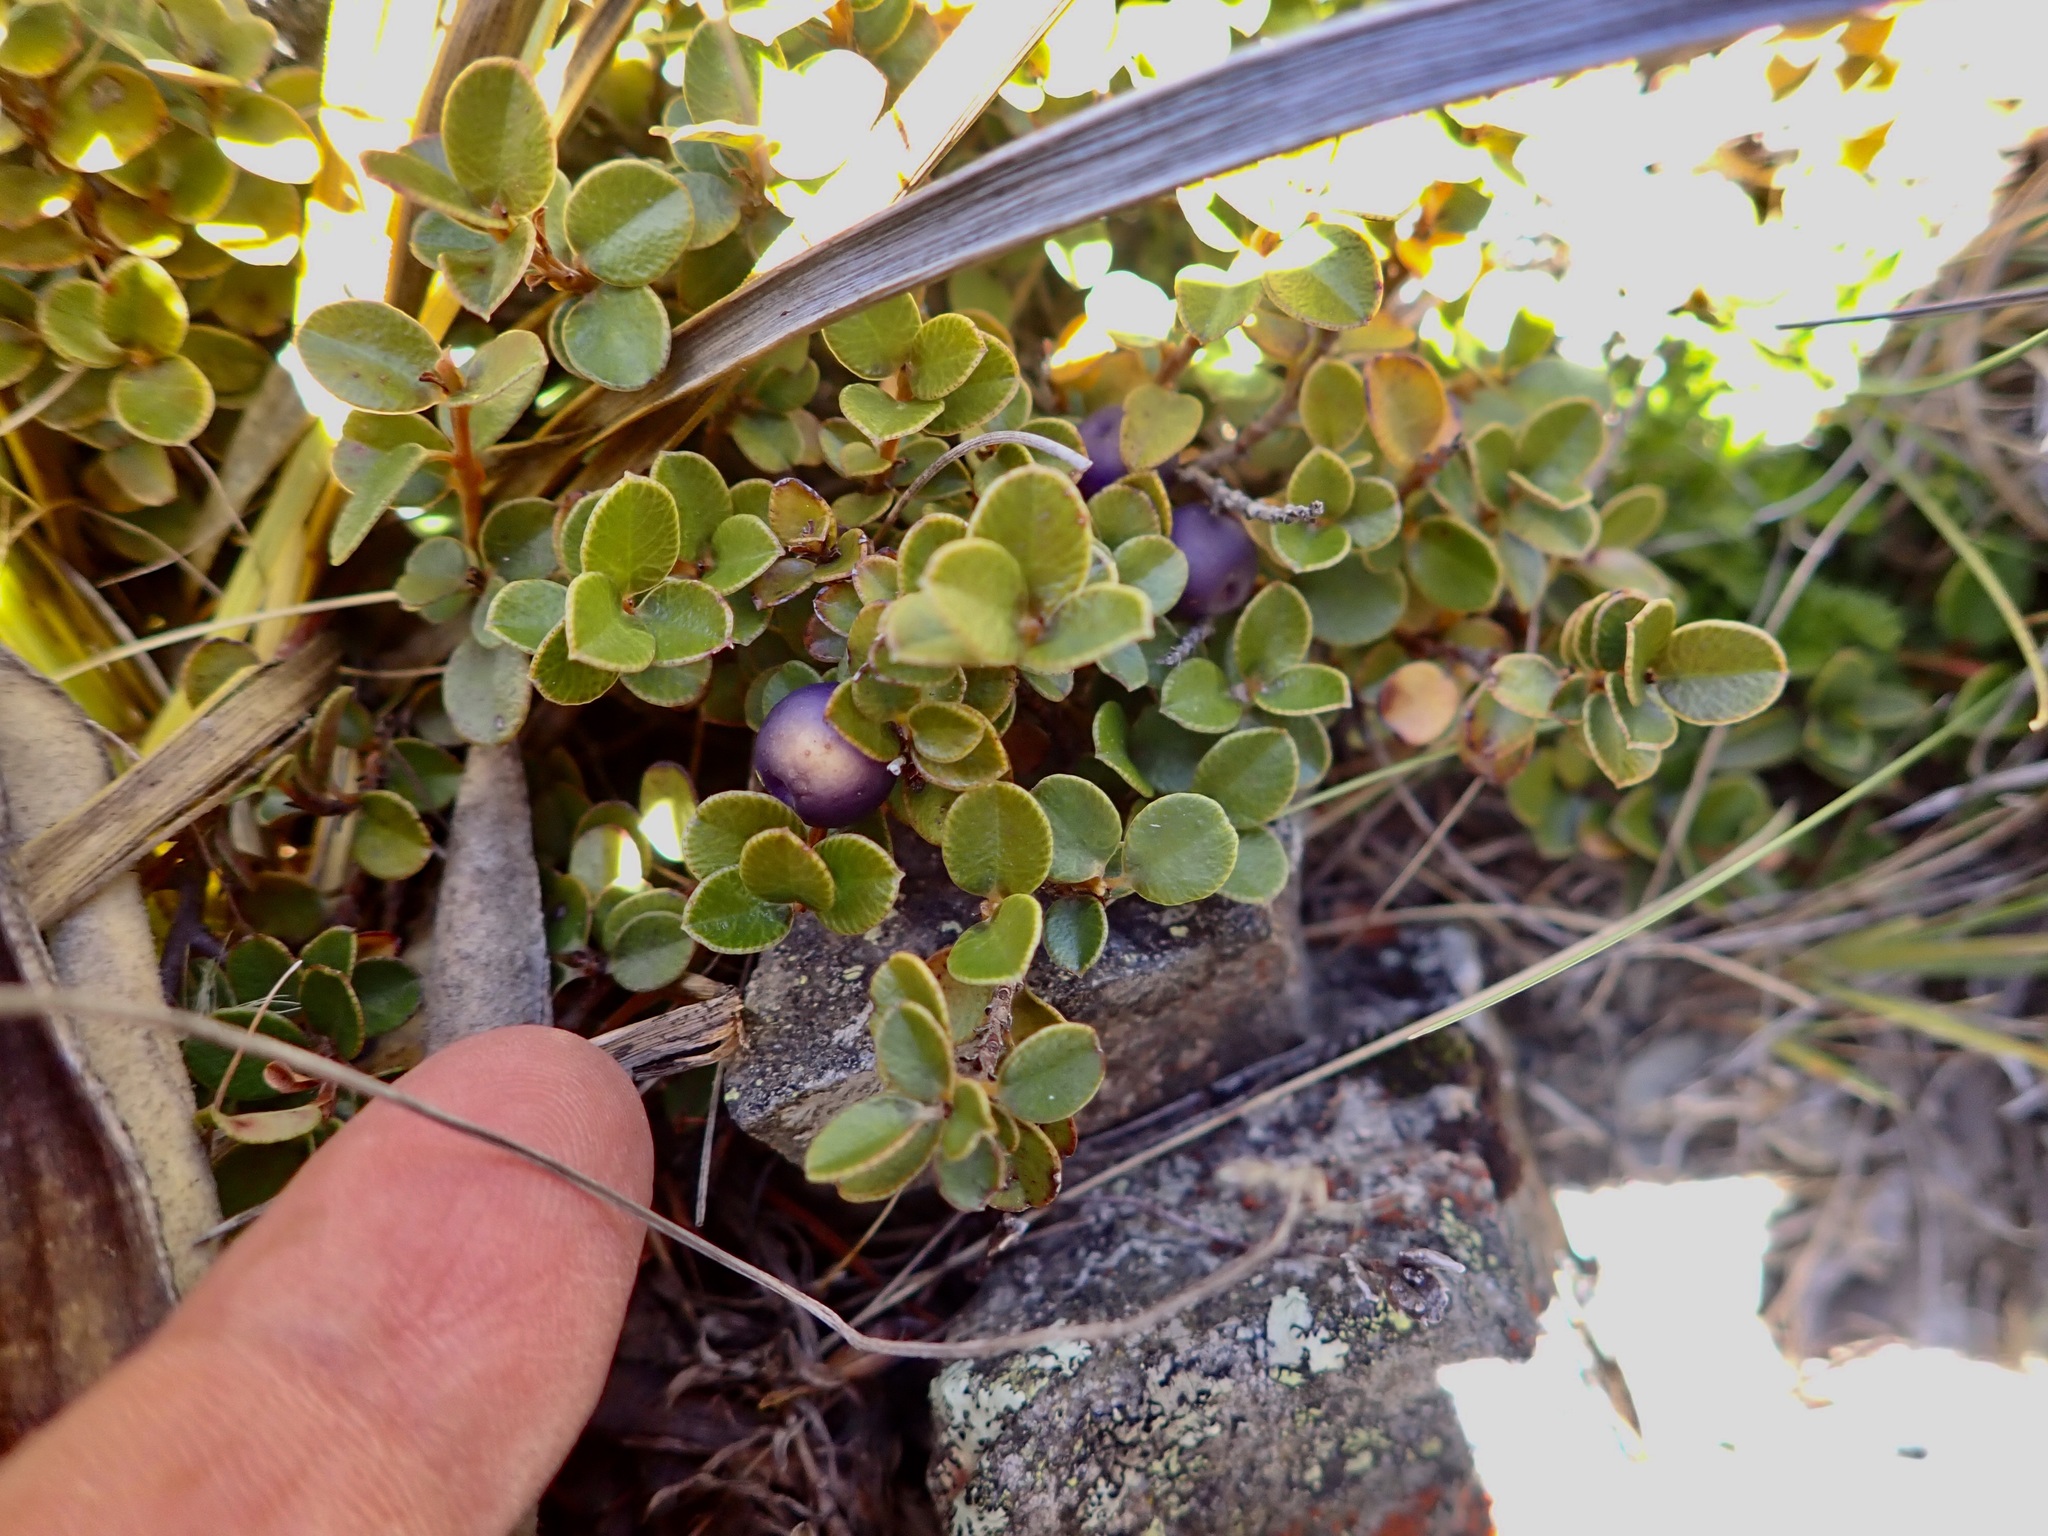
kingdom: Plantae
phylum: Tracheophyta
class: Magnoliopsida
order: Ericales
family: Primulaceae
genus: Myrsine
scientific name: Myrsine nummularia
